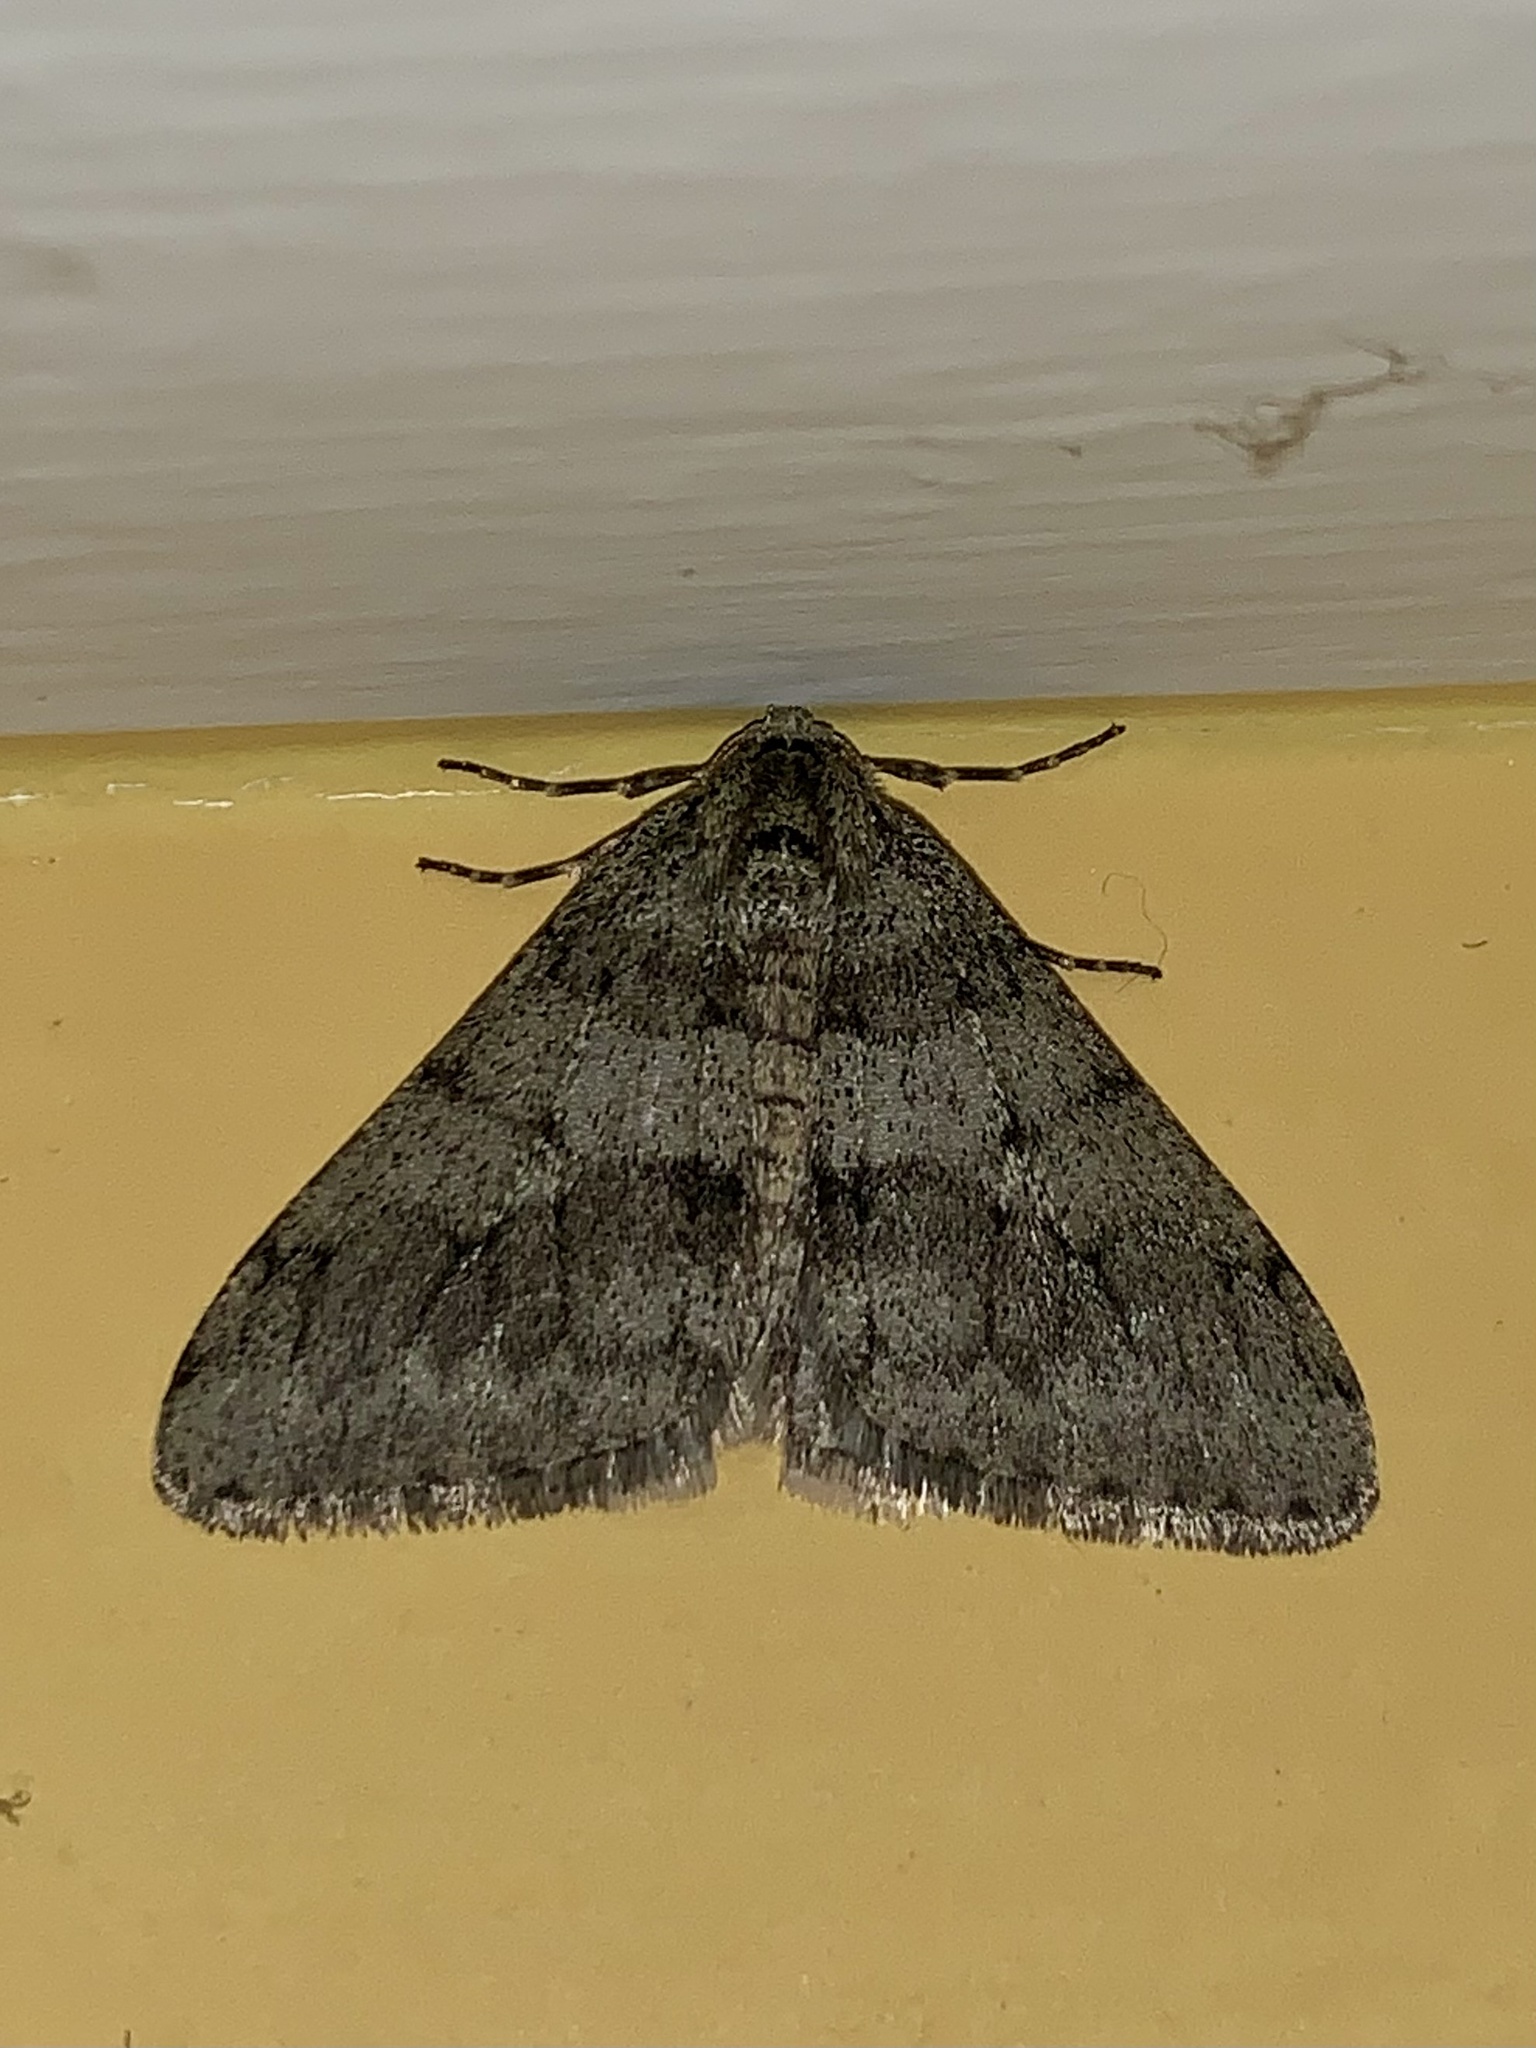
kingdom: Animalia
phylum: Arthropoda
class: Insecta
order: Lepidoptera
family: Geometridae
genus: Phigalia
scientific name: Phigalia strigataria
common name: Small phigalia
